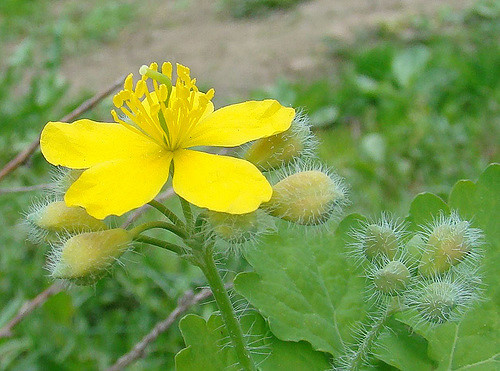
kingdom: Plantae
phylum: Tracheophyta
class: Magnoliopsida
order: Ranunculales
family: Papaveraceae
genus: Chelidonium
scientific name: Chelidonium majus
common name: Greater celandine
